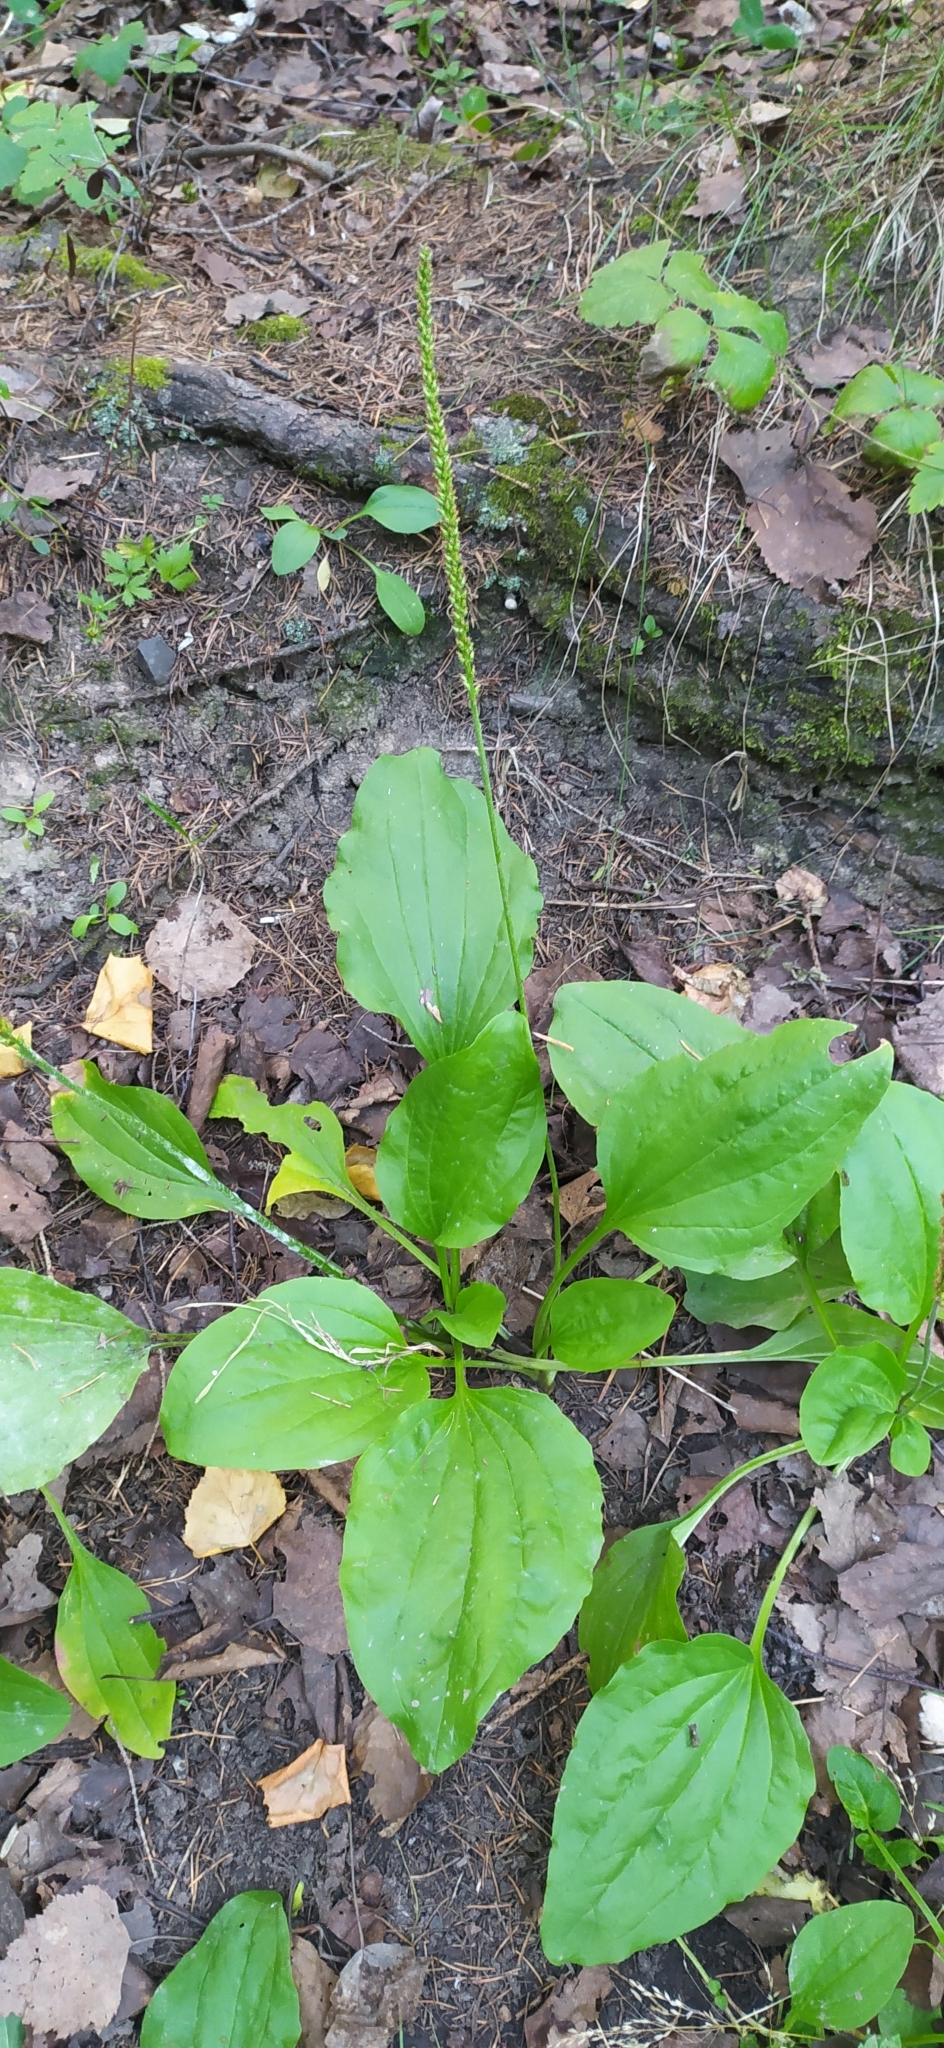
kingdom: Plantae
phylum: Tracheophyta
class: Magnoliopsida
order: Lamiales
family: Plantaginaceae
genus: Plantago
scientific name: Plantago major
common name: Common plantain
